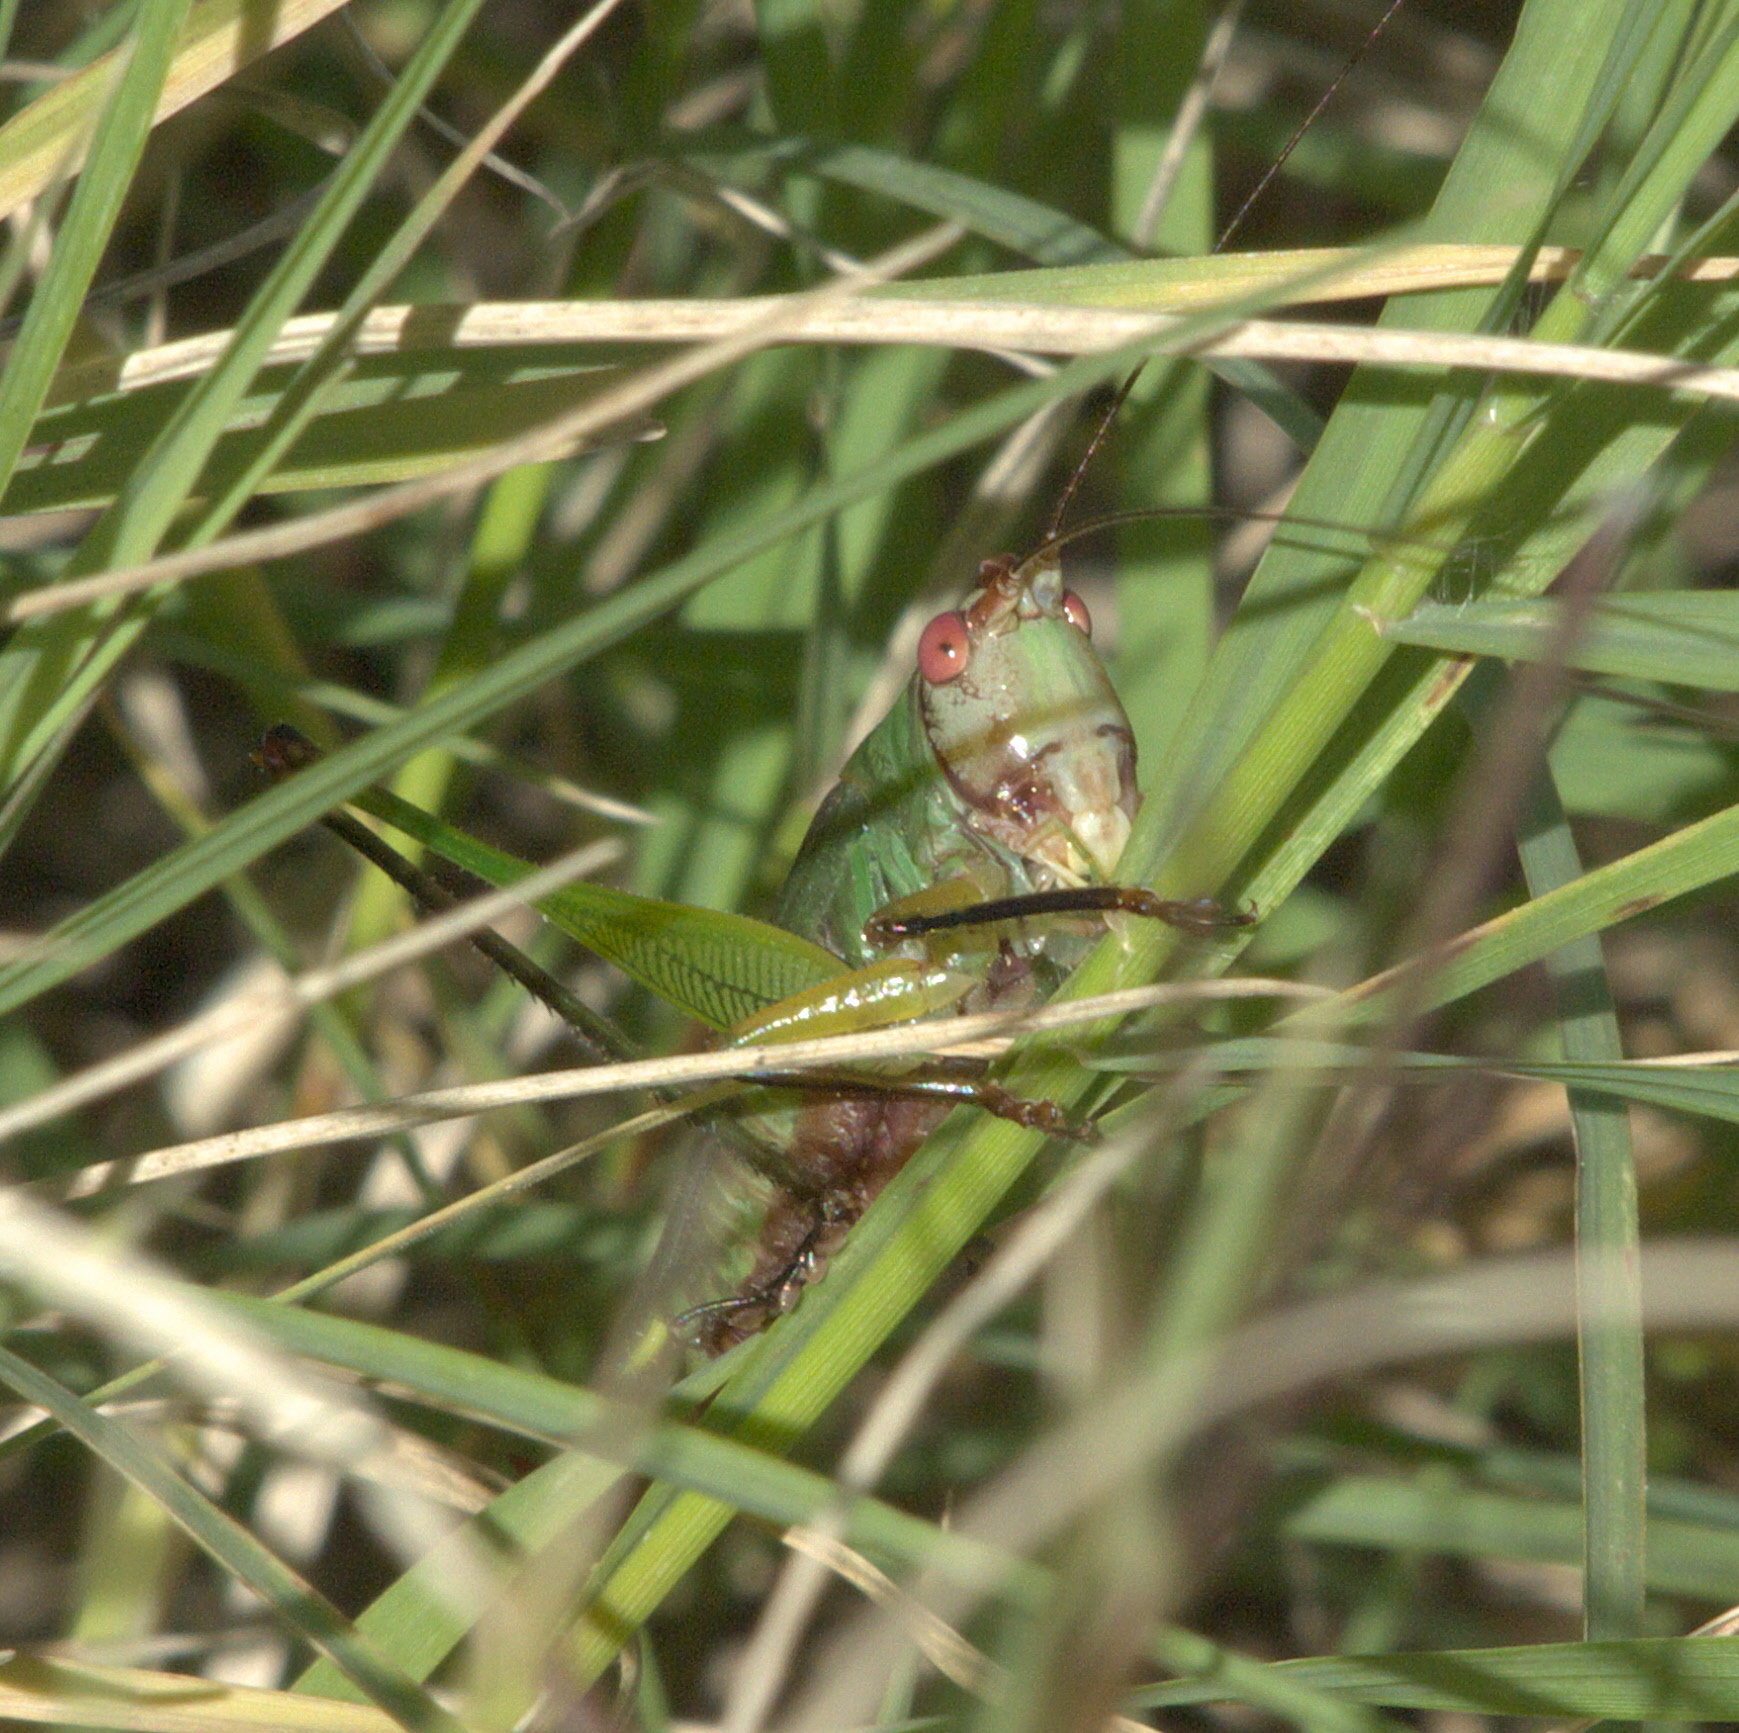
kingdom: Animalia
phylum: Arthropoda
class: Insecta
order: Orthoptera
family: Tettigoniidae
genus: Orchelimum
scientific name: Orchelimum nigripes
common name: Black-legged meadow katydid
